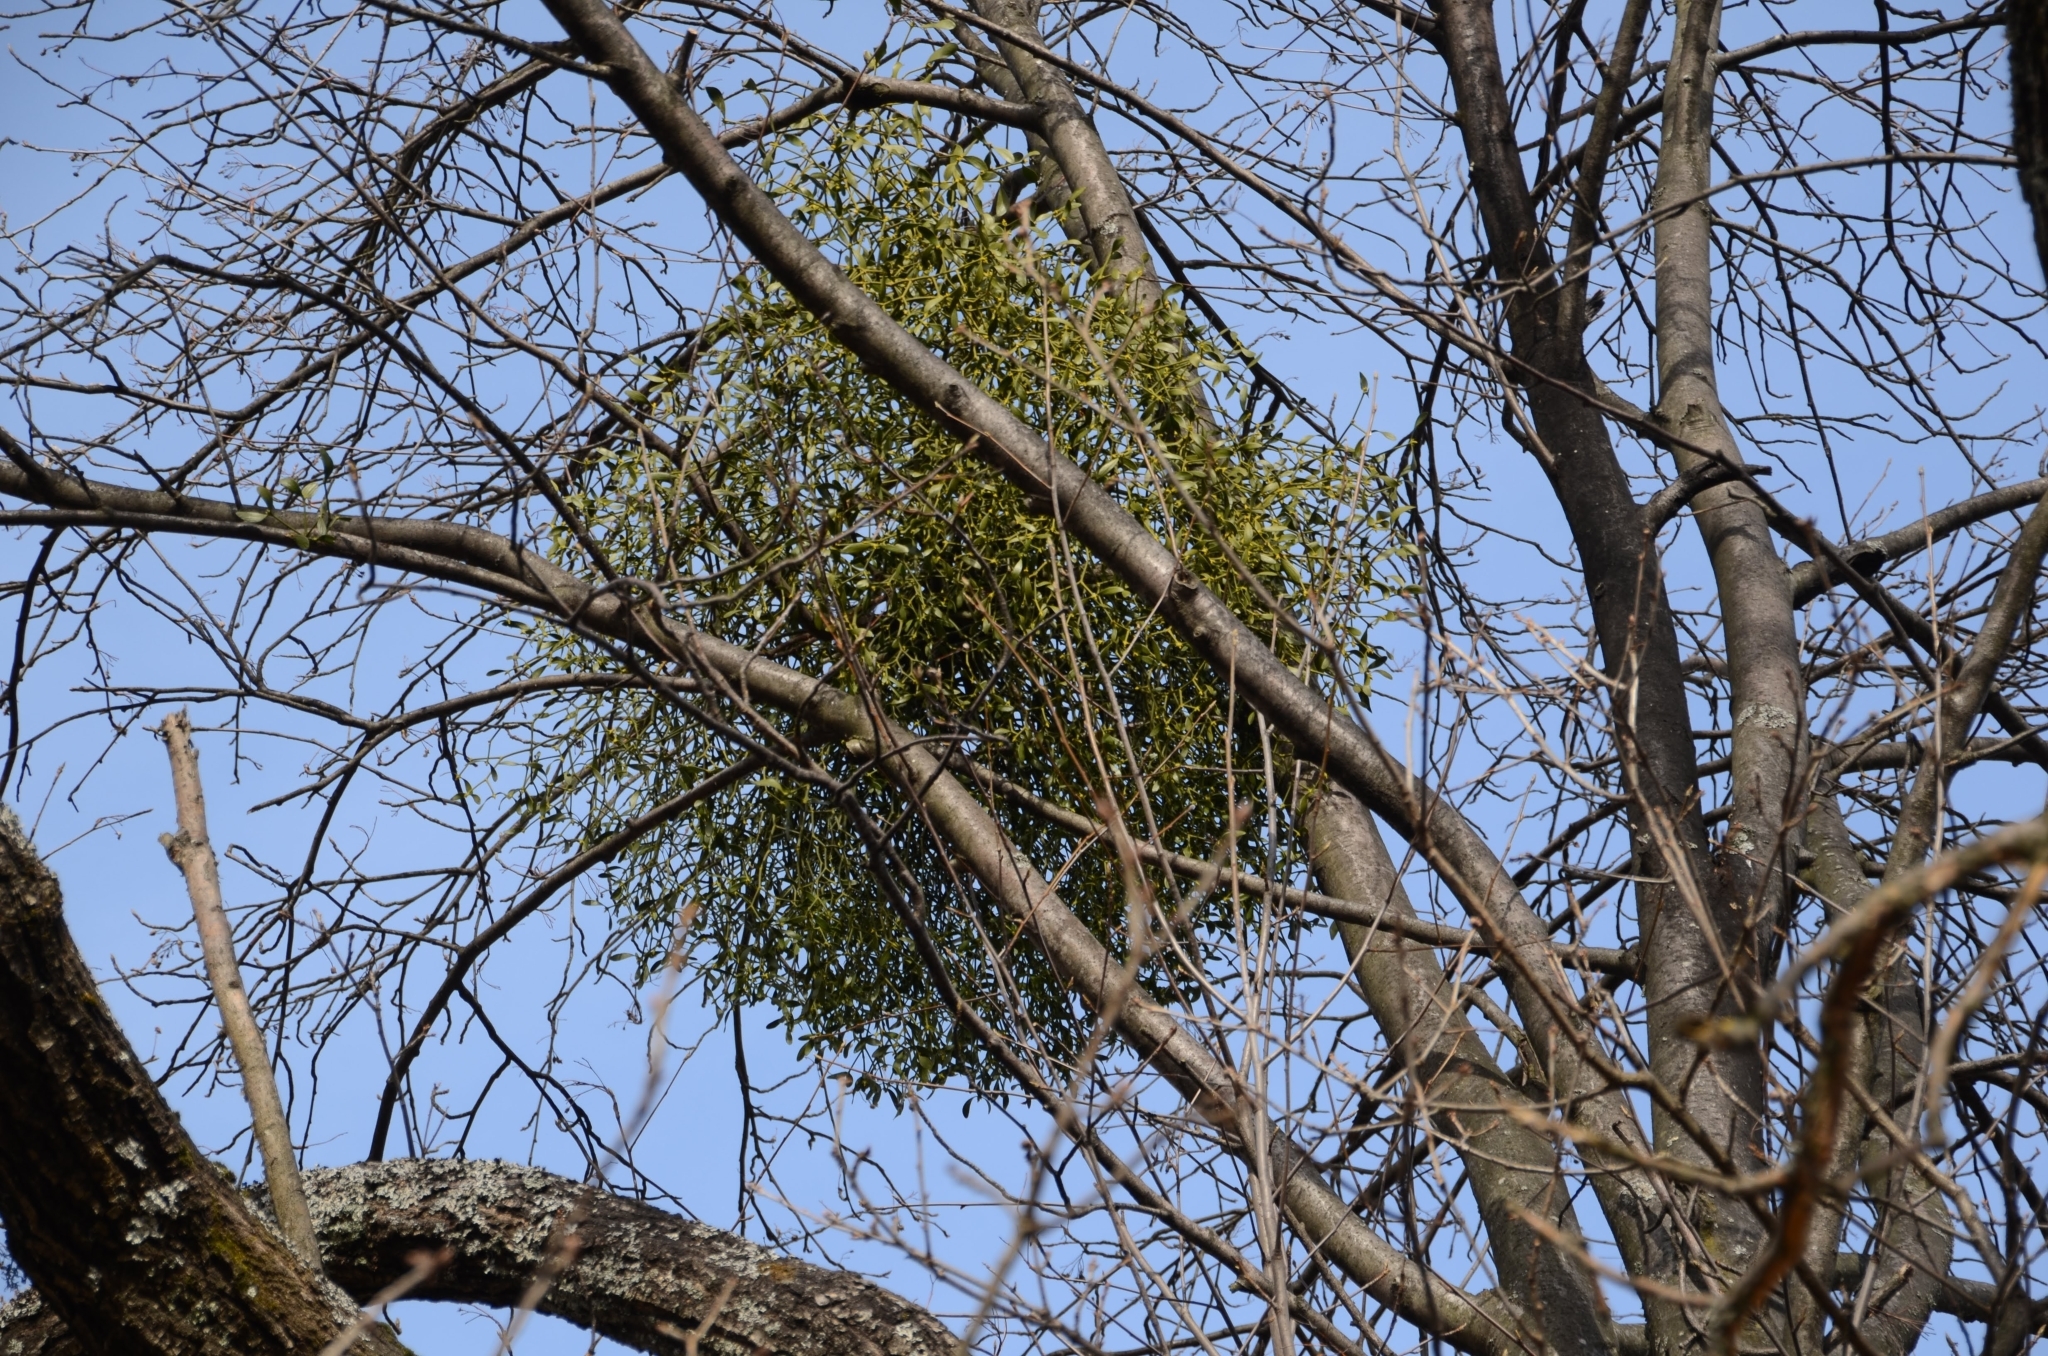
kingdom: Plantae
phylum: Tracheophyta
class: Magnoliopsida
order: Santalales
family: Viscaceae
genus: Viscum
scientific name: Viscum album
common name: Mistletoe
